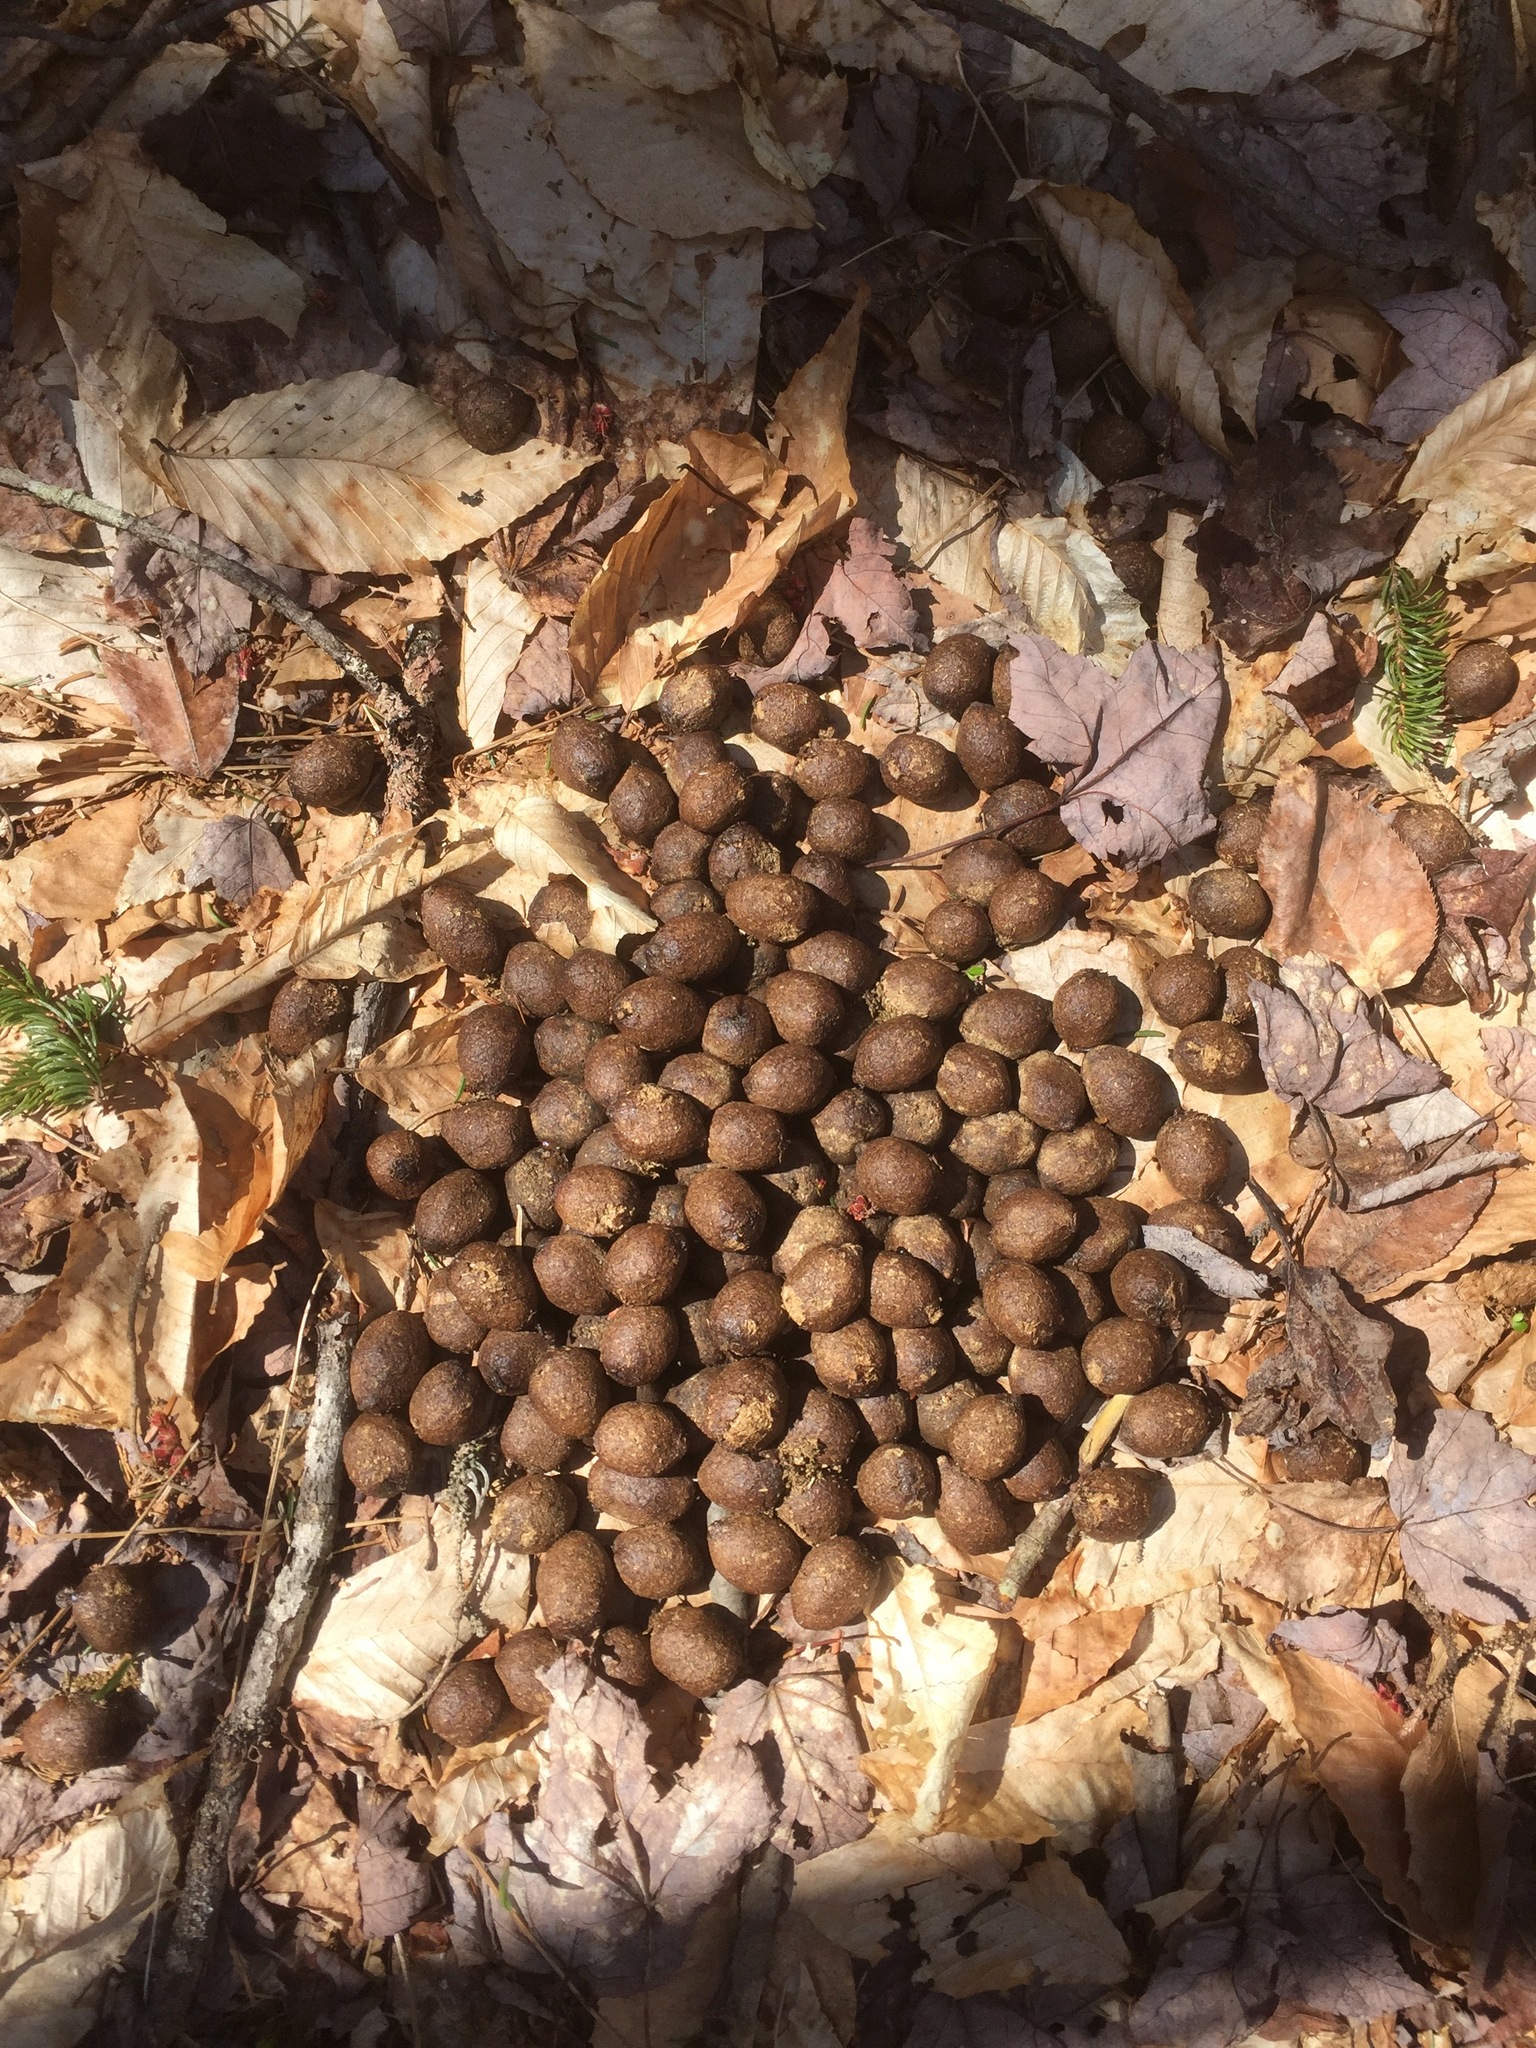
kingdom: Animalia
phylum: Chordata
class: Mammalia
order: Artiodactyla
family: Cervidae
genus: Alces
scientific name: Alces alces
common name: Moose
